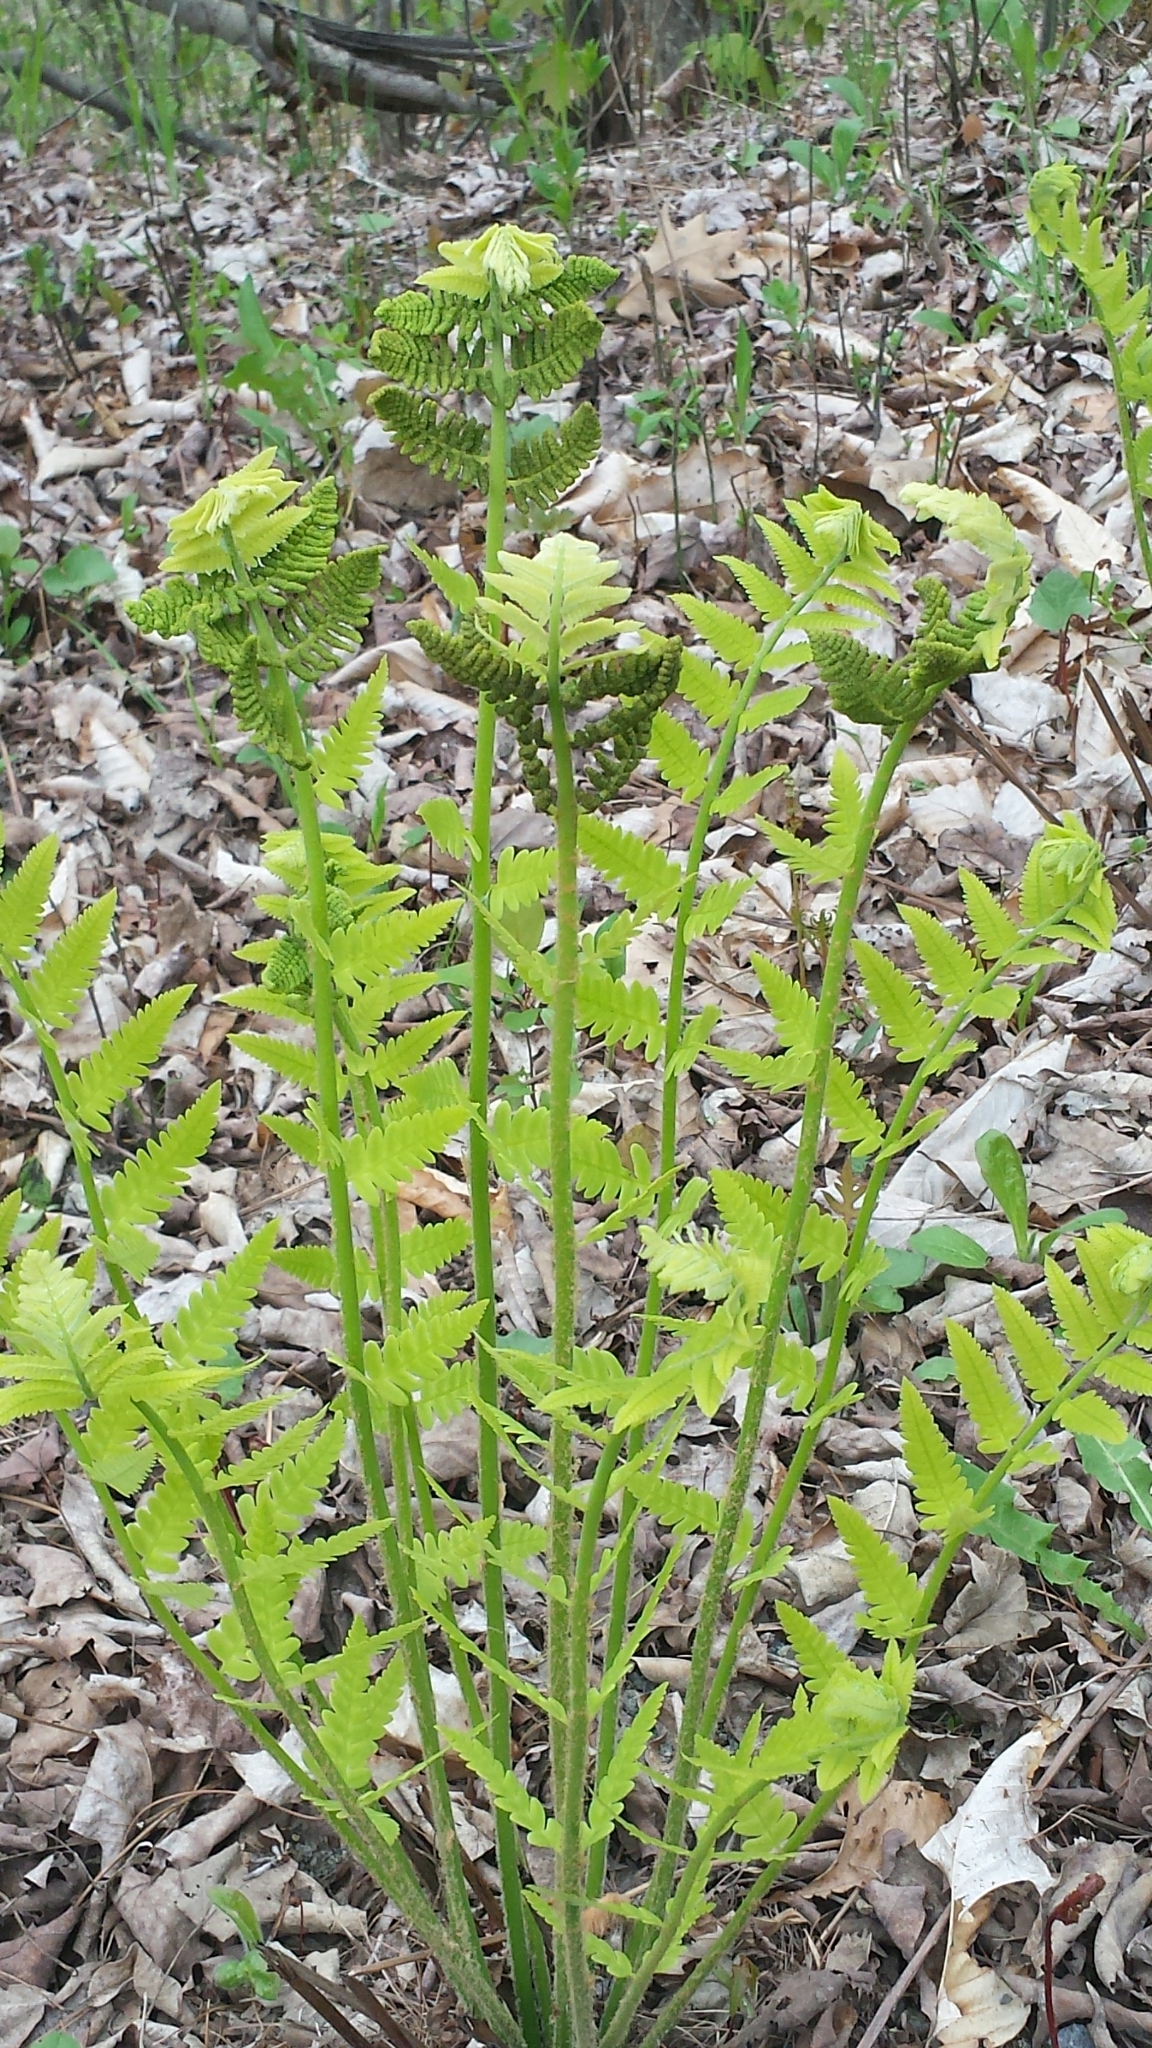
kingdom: Plantae
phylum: Tracheophyta
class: Polypodiopsida
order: Osmundales
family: Osmundaceae
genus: Claytosmunda
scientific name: Claytosmunda claytoniana
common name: Clayton's fern
